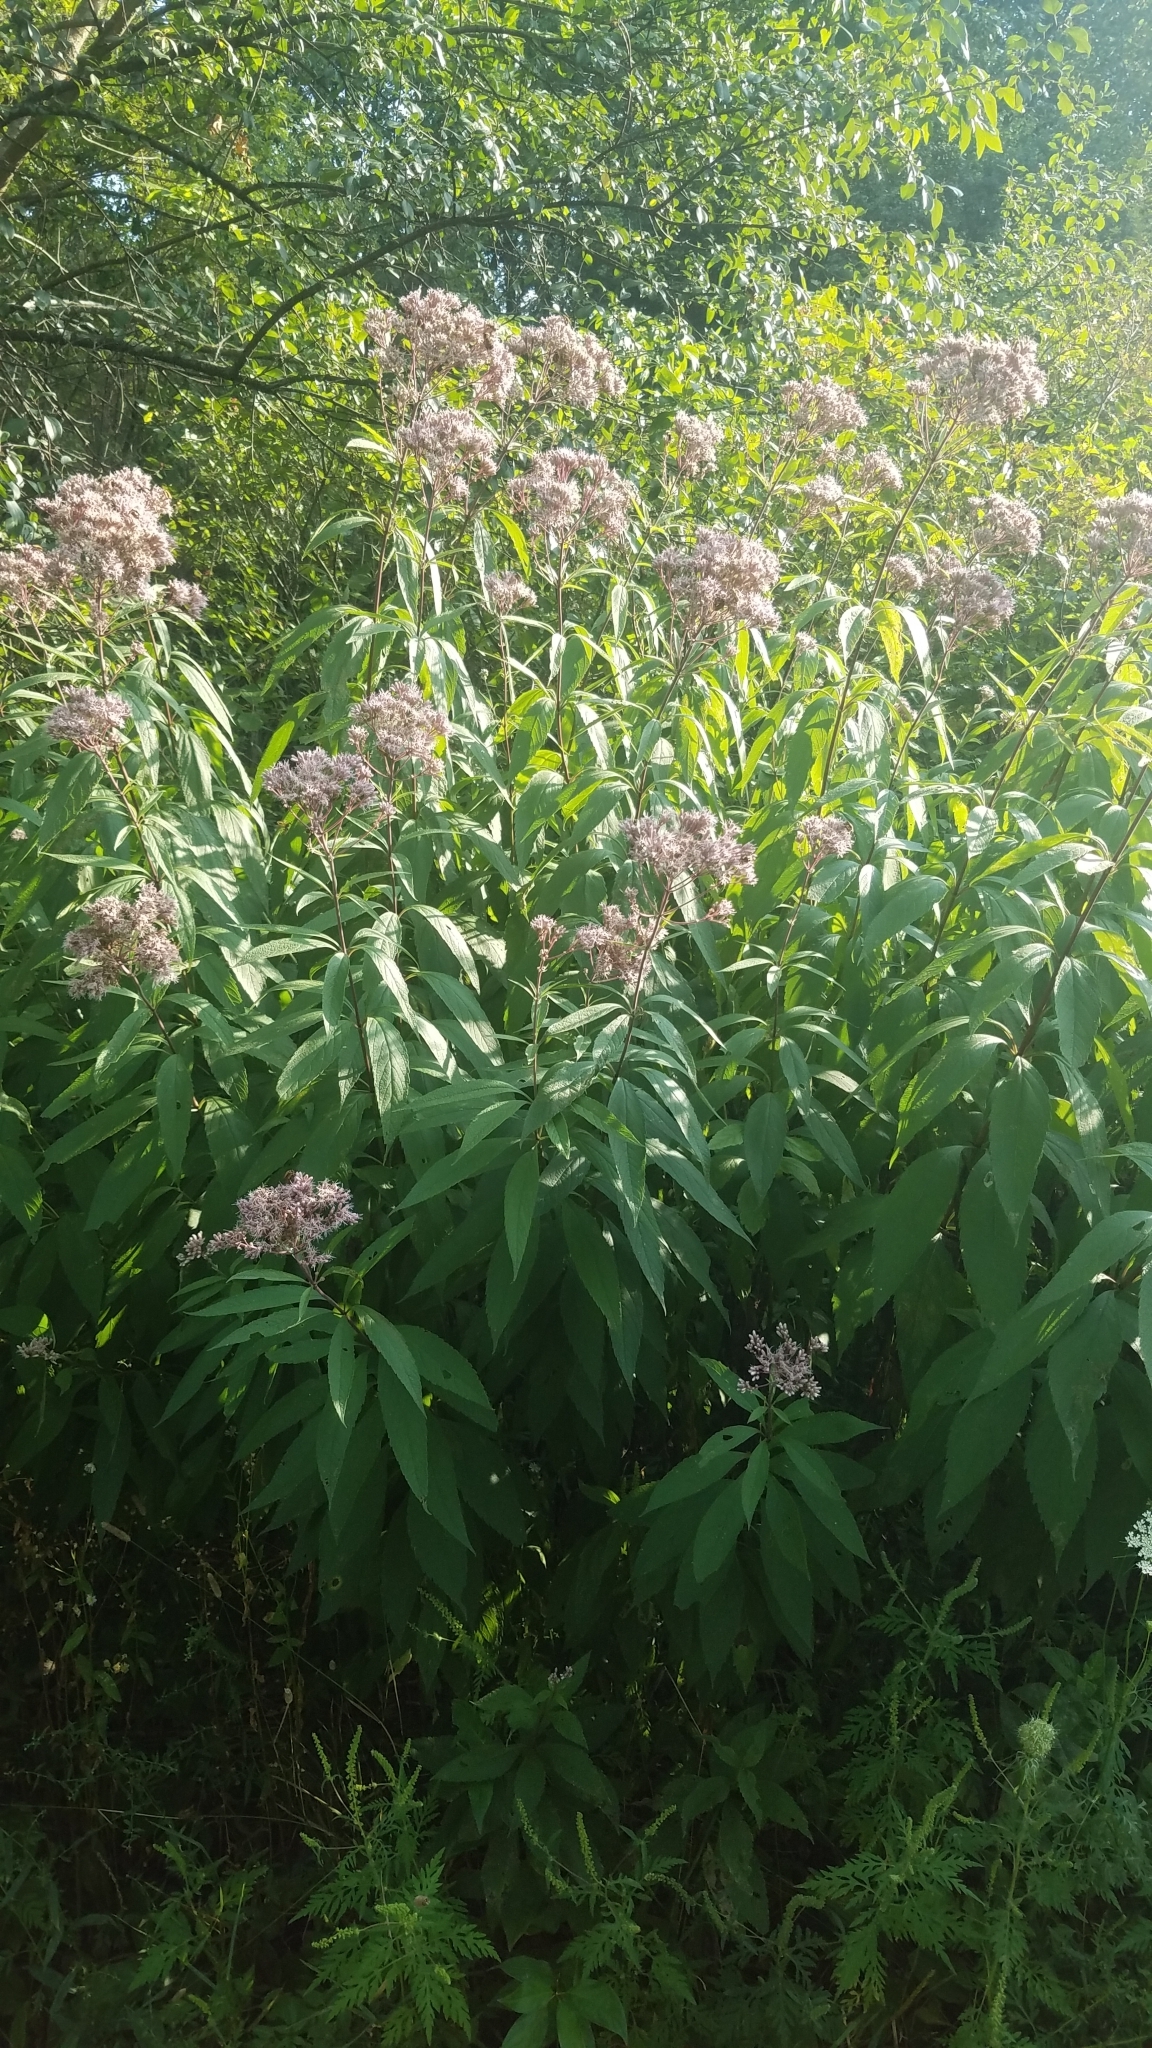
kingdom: Plantae
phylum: Tracheophyta
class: Magnoliopsida
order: Asterales
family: Asteraceae
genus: Eutrochium
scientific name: Eutrochium maculatum
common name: Spotted joe pye weed
